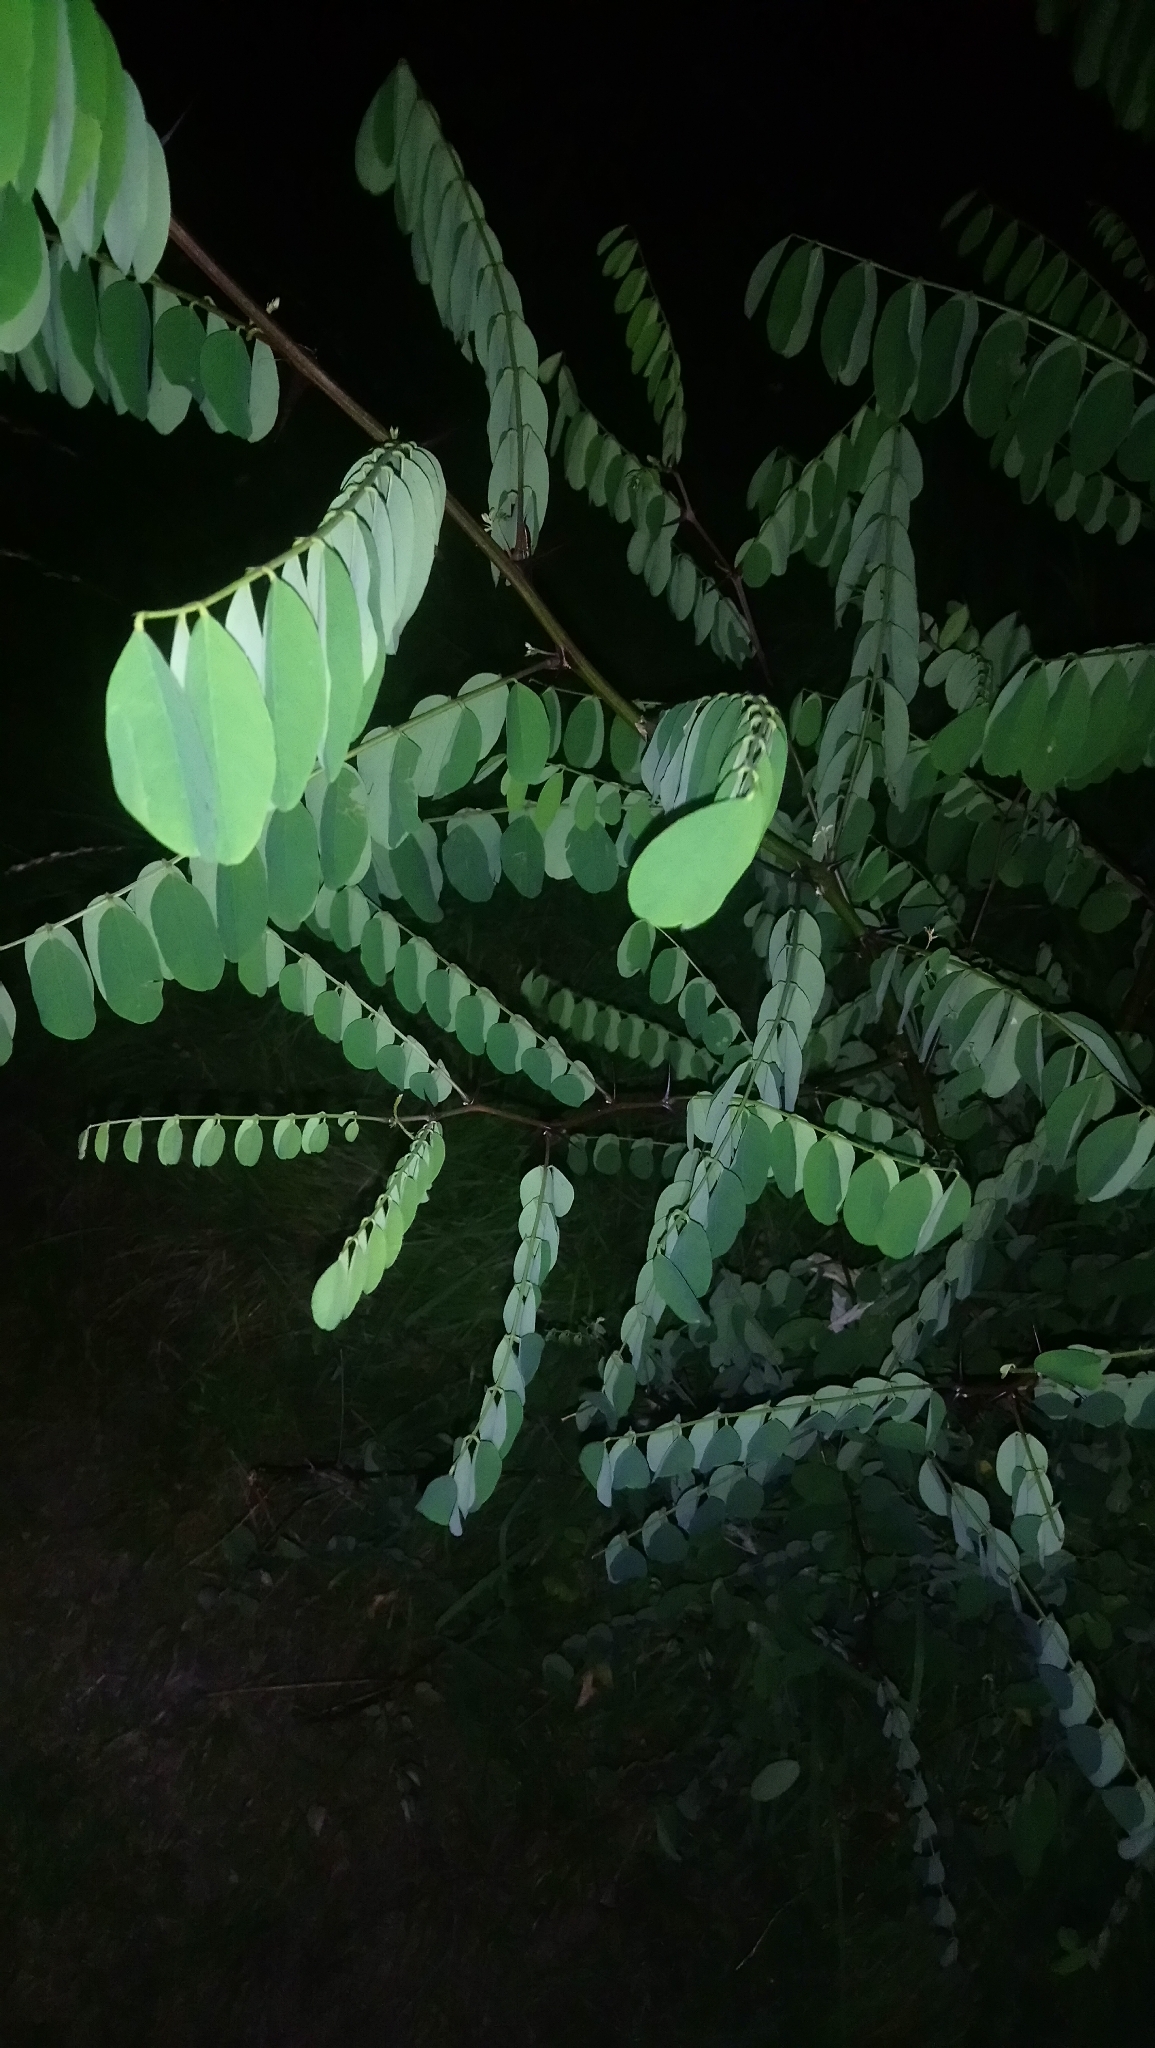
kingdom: Plantae
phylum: Tracheophyta
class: Magnoliopsida
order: Fabales
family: Fabaceae
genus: Robinia
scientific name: Robinia pseudoacacia
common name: Black locust
